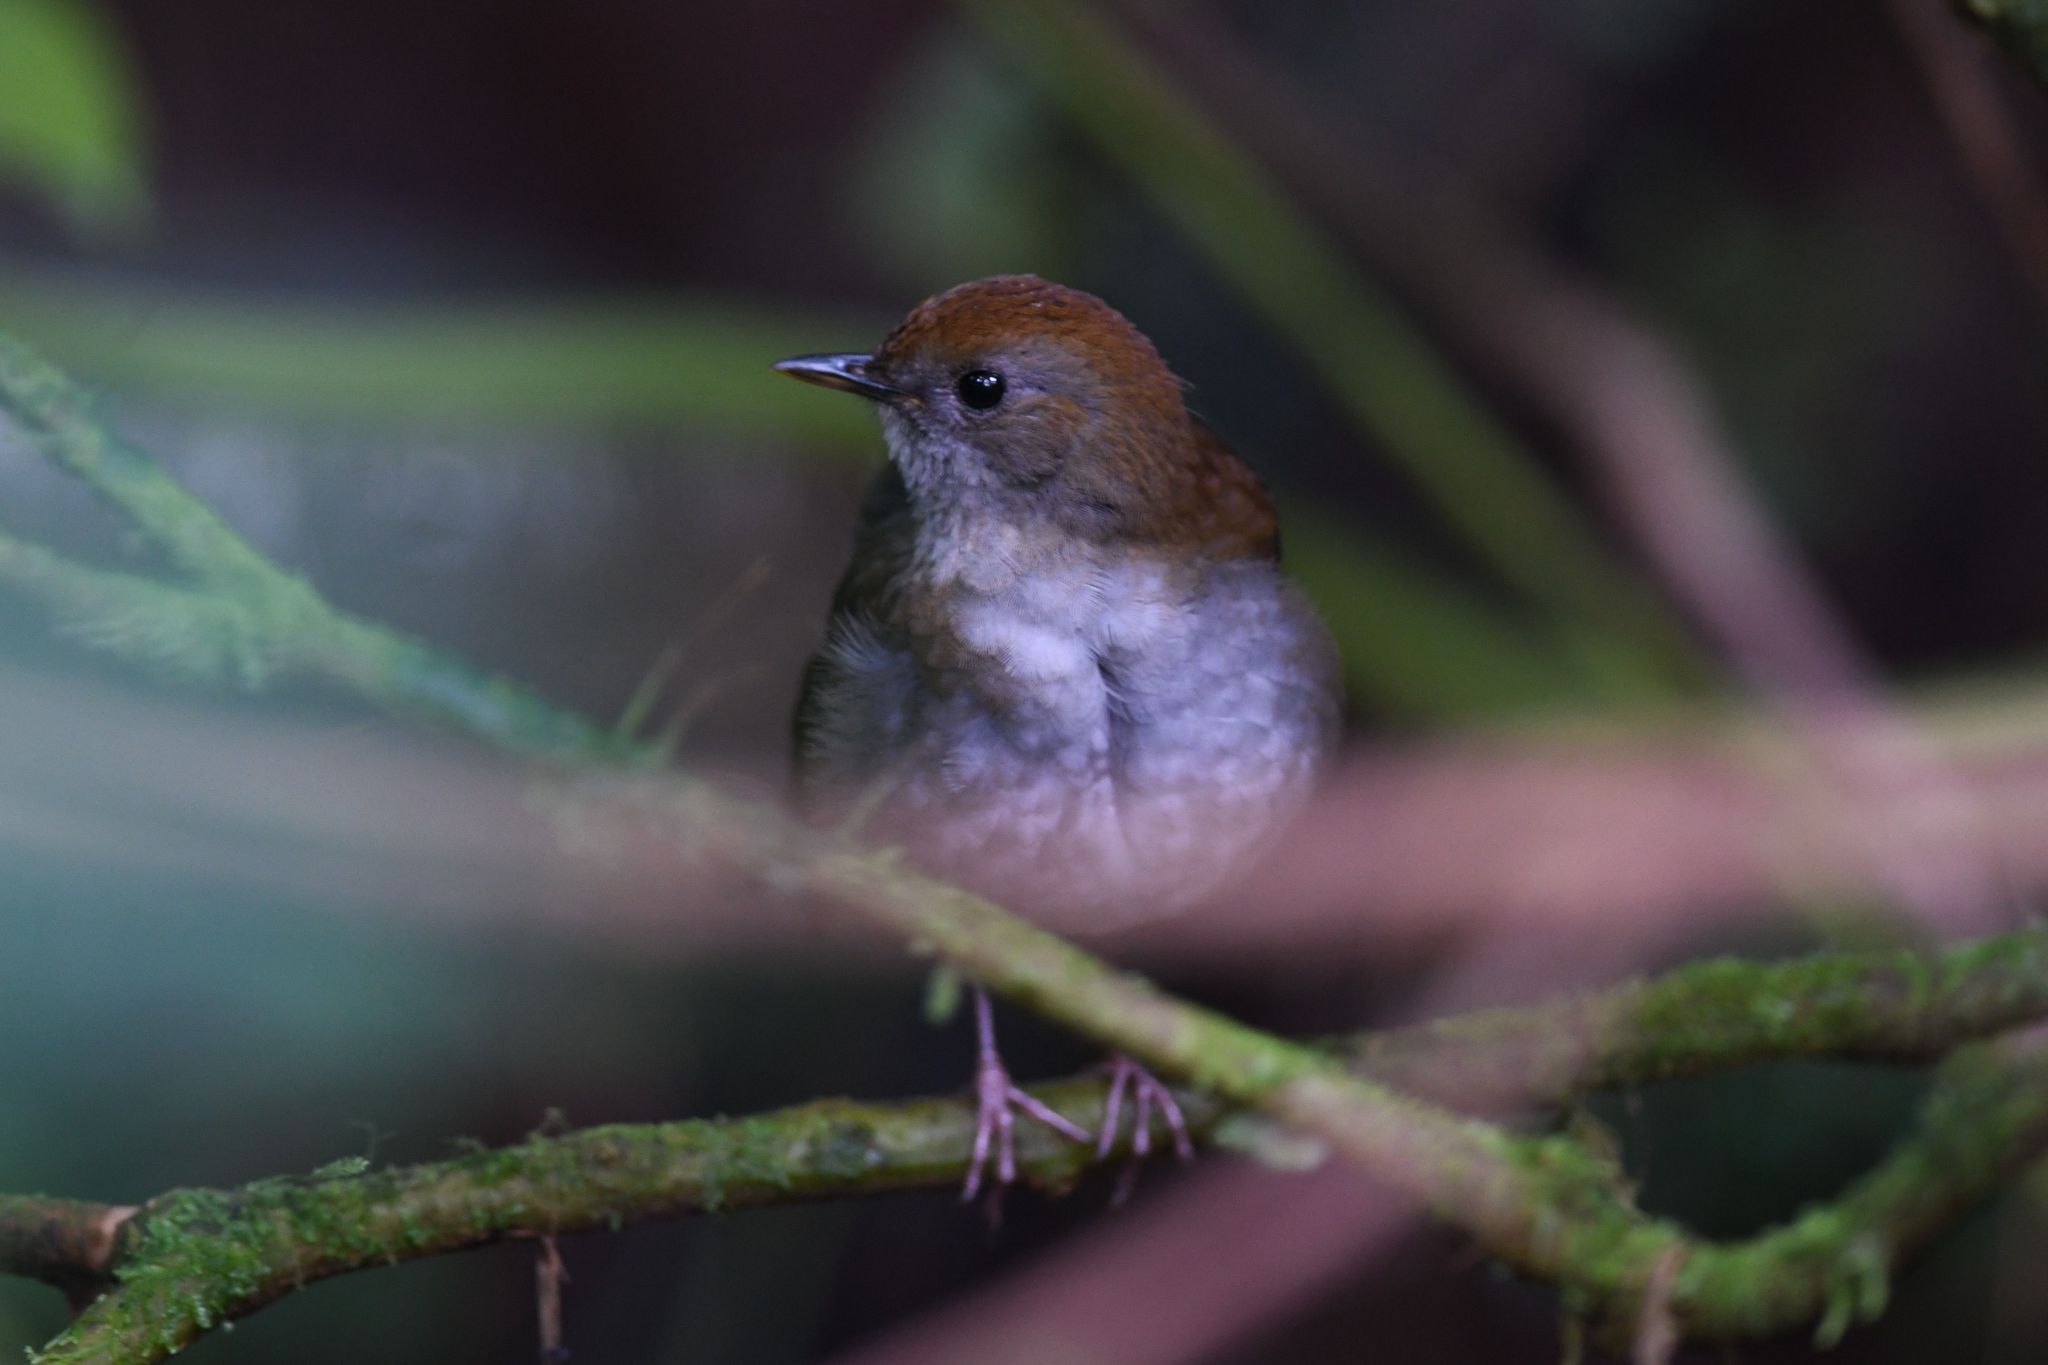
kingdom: Animalia
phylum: Chordata
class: Aves
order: Passeriformes
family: Turdidae
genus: Catharus
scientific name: Catharus frantzii
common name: Ruddy-capped nightingale-thrush
